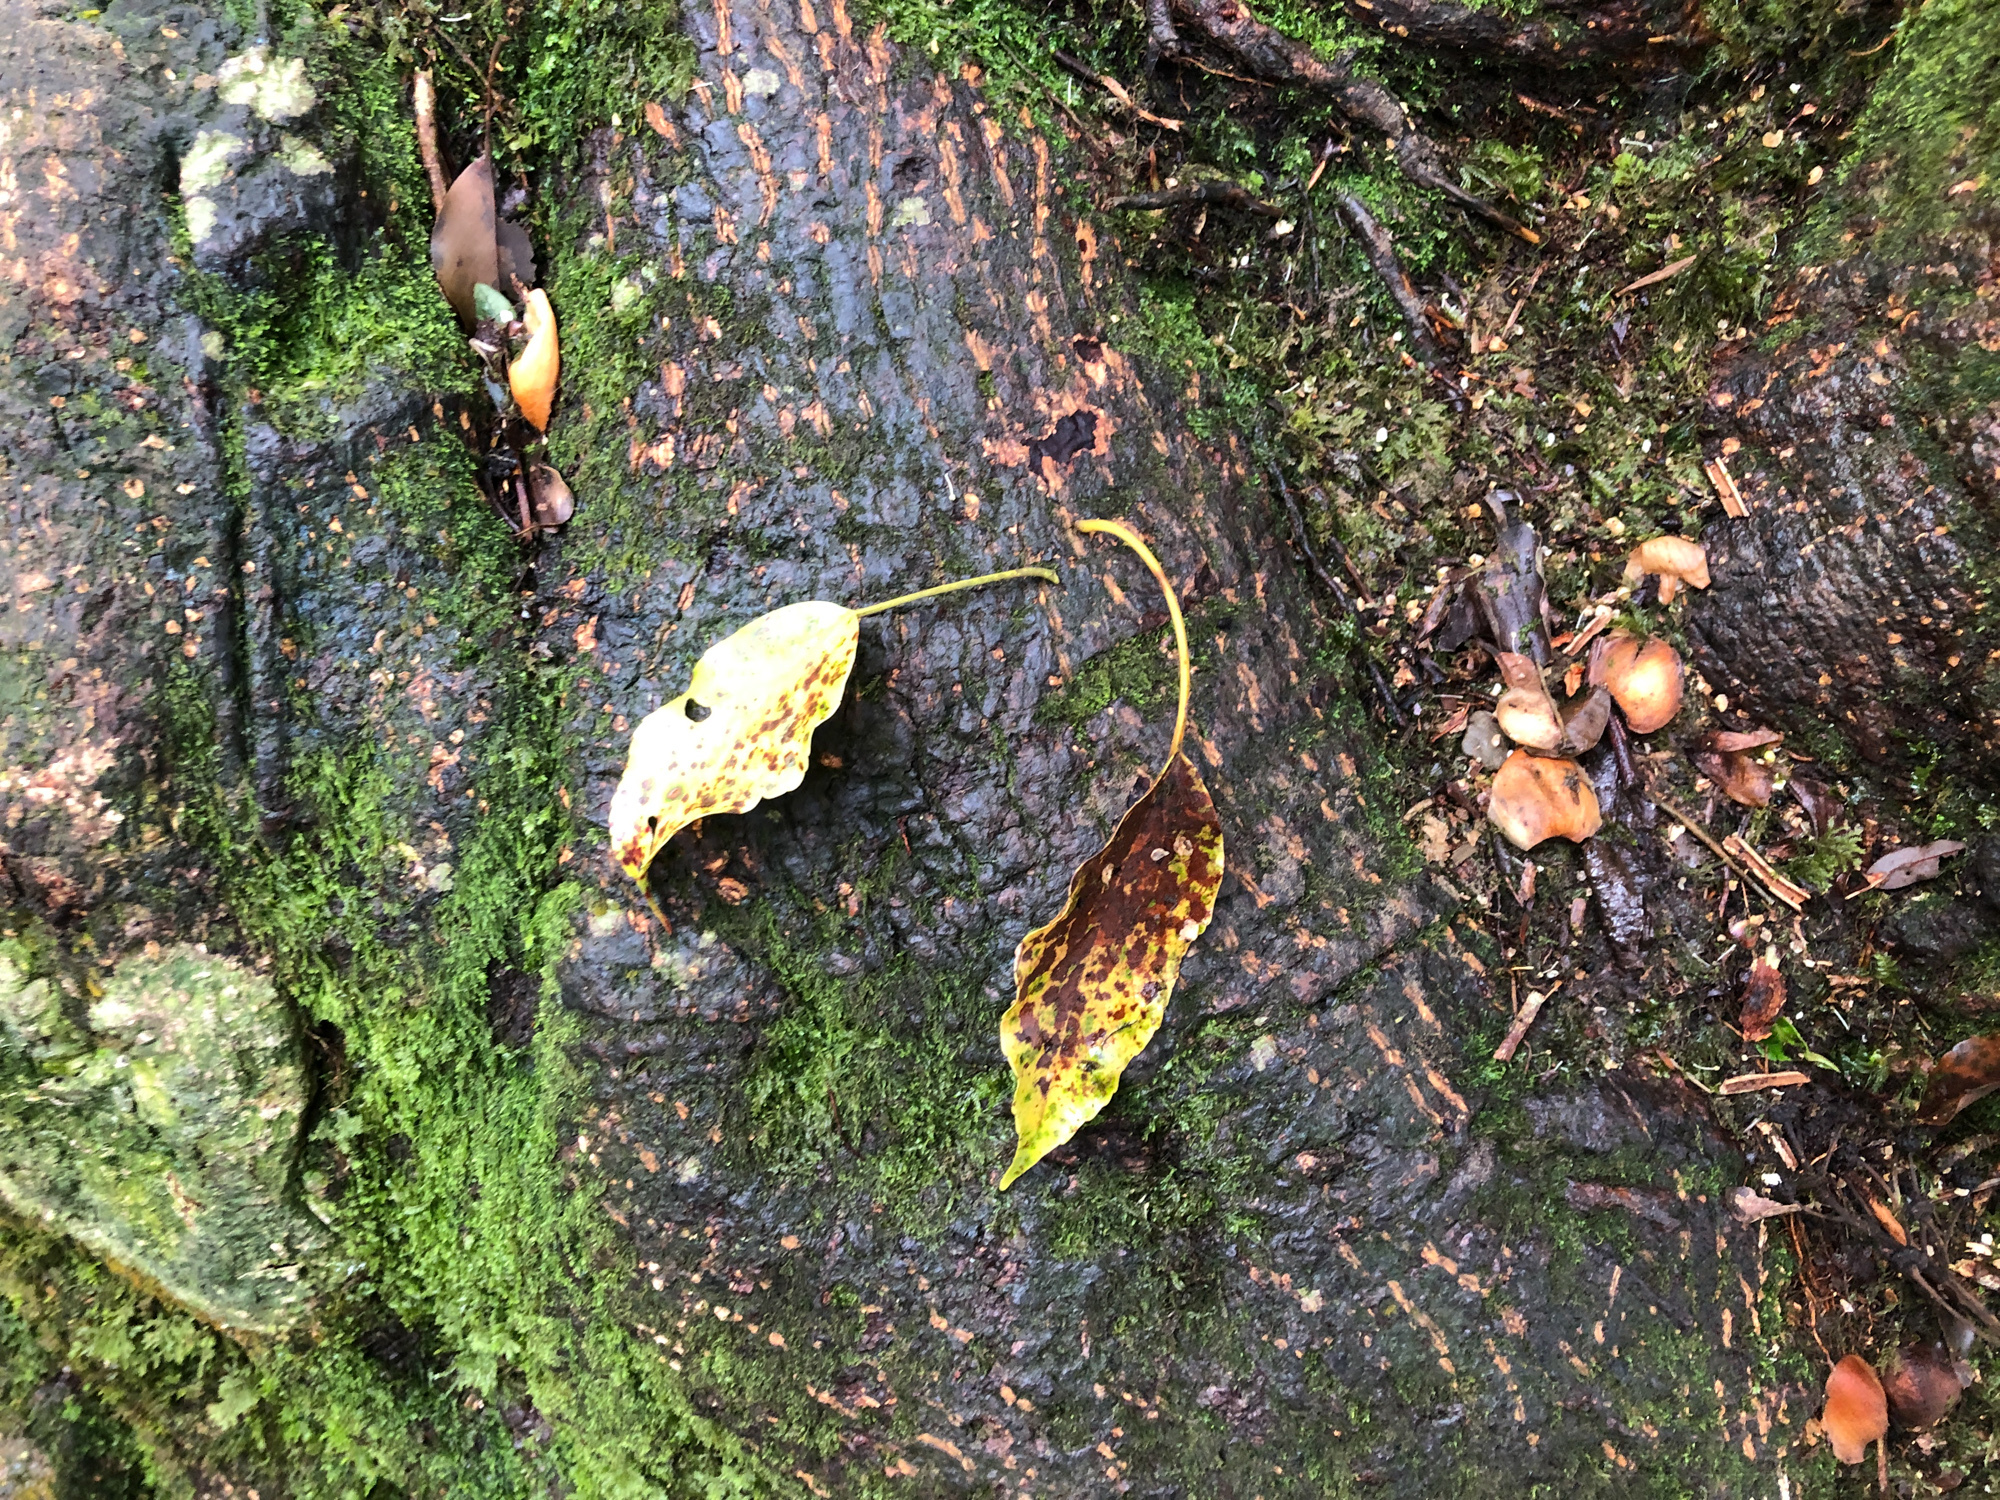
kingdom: Plantae
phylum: Tracheophyta
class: Magnoliopsida
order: Trochodendrales
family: Trochodendraceae
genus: Trochodendron
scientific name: Trochodendron aralioides
